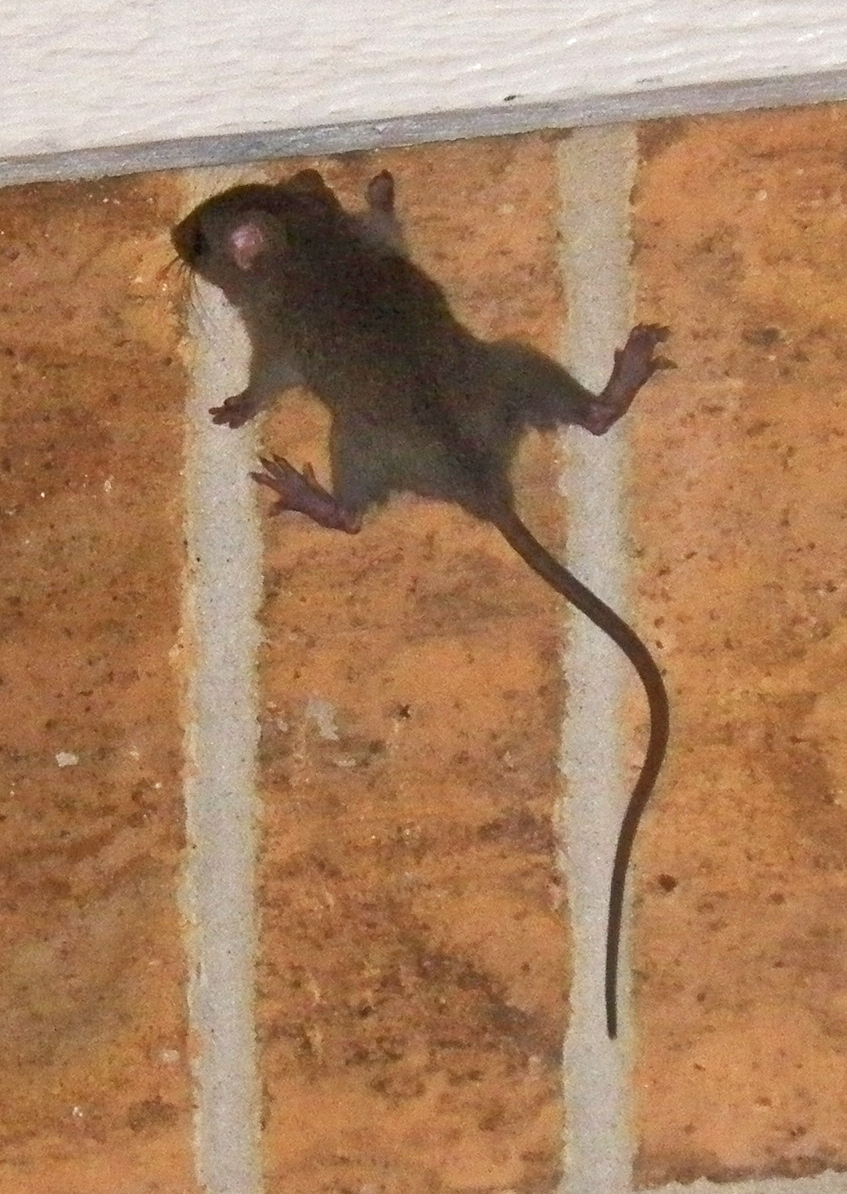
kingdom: Animalia
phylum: Chordata
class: Mammalia
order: Rodentia
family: Muridae
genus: Rattus
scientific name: Rattus rattus
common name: Black rat
